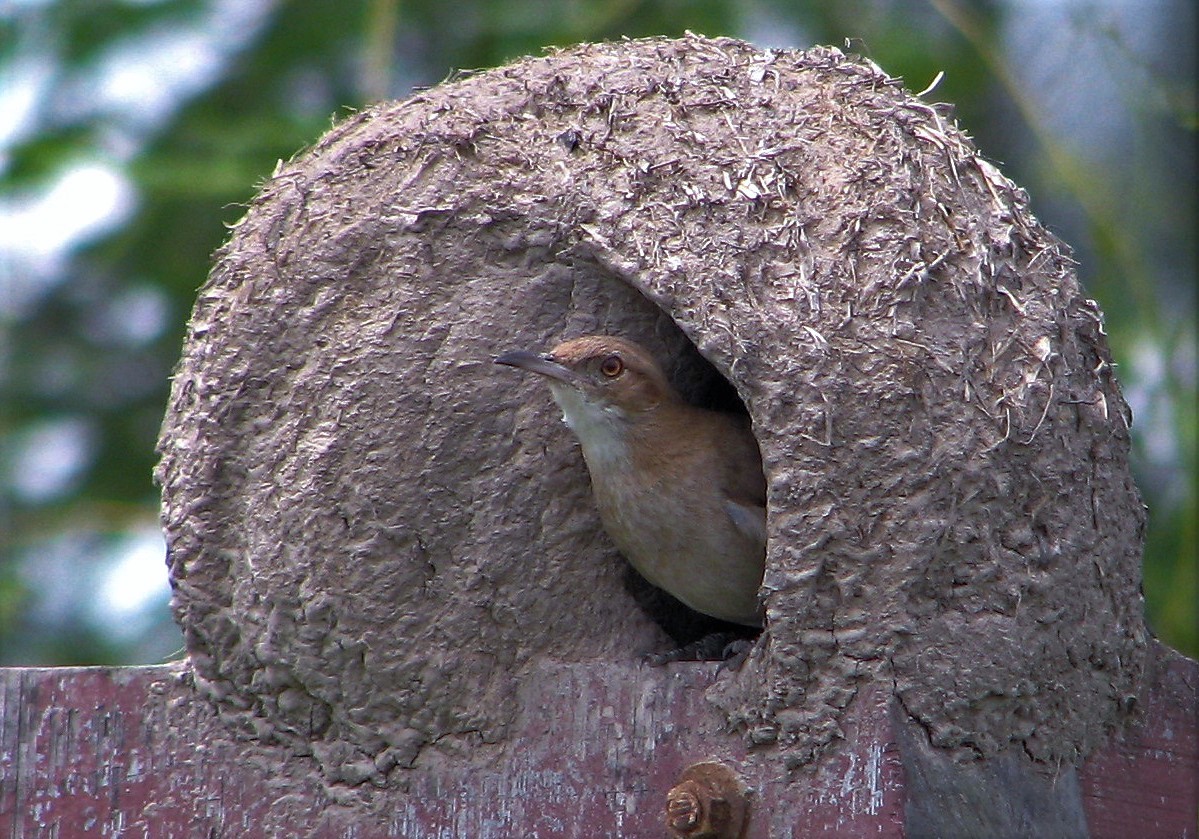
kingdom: Animalia
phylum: Chordata
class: Aves
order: Passeriformes
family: Furnariidae
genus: Furnarius
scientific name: Furnarius rufus
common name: Rufous hornero
